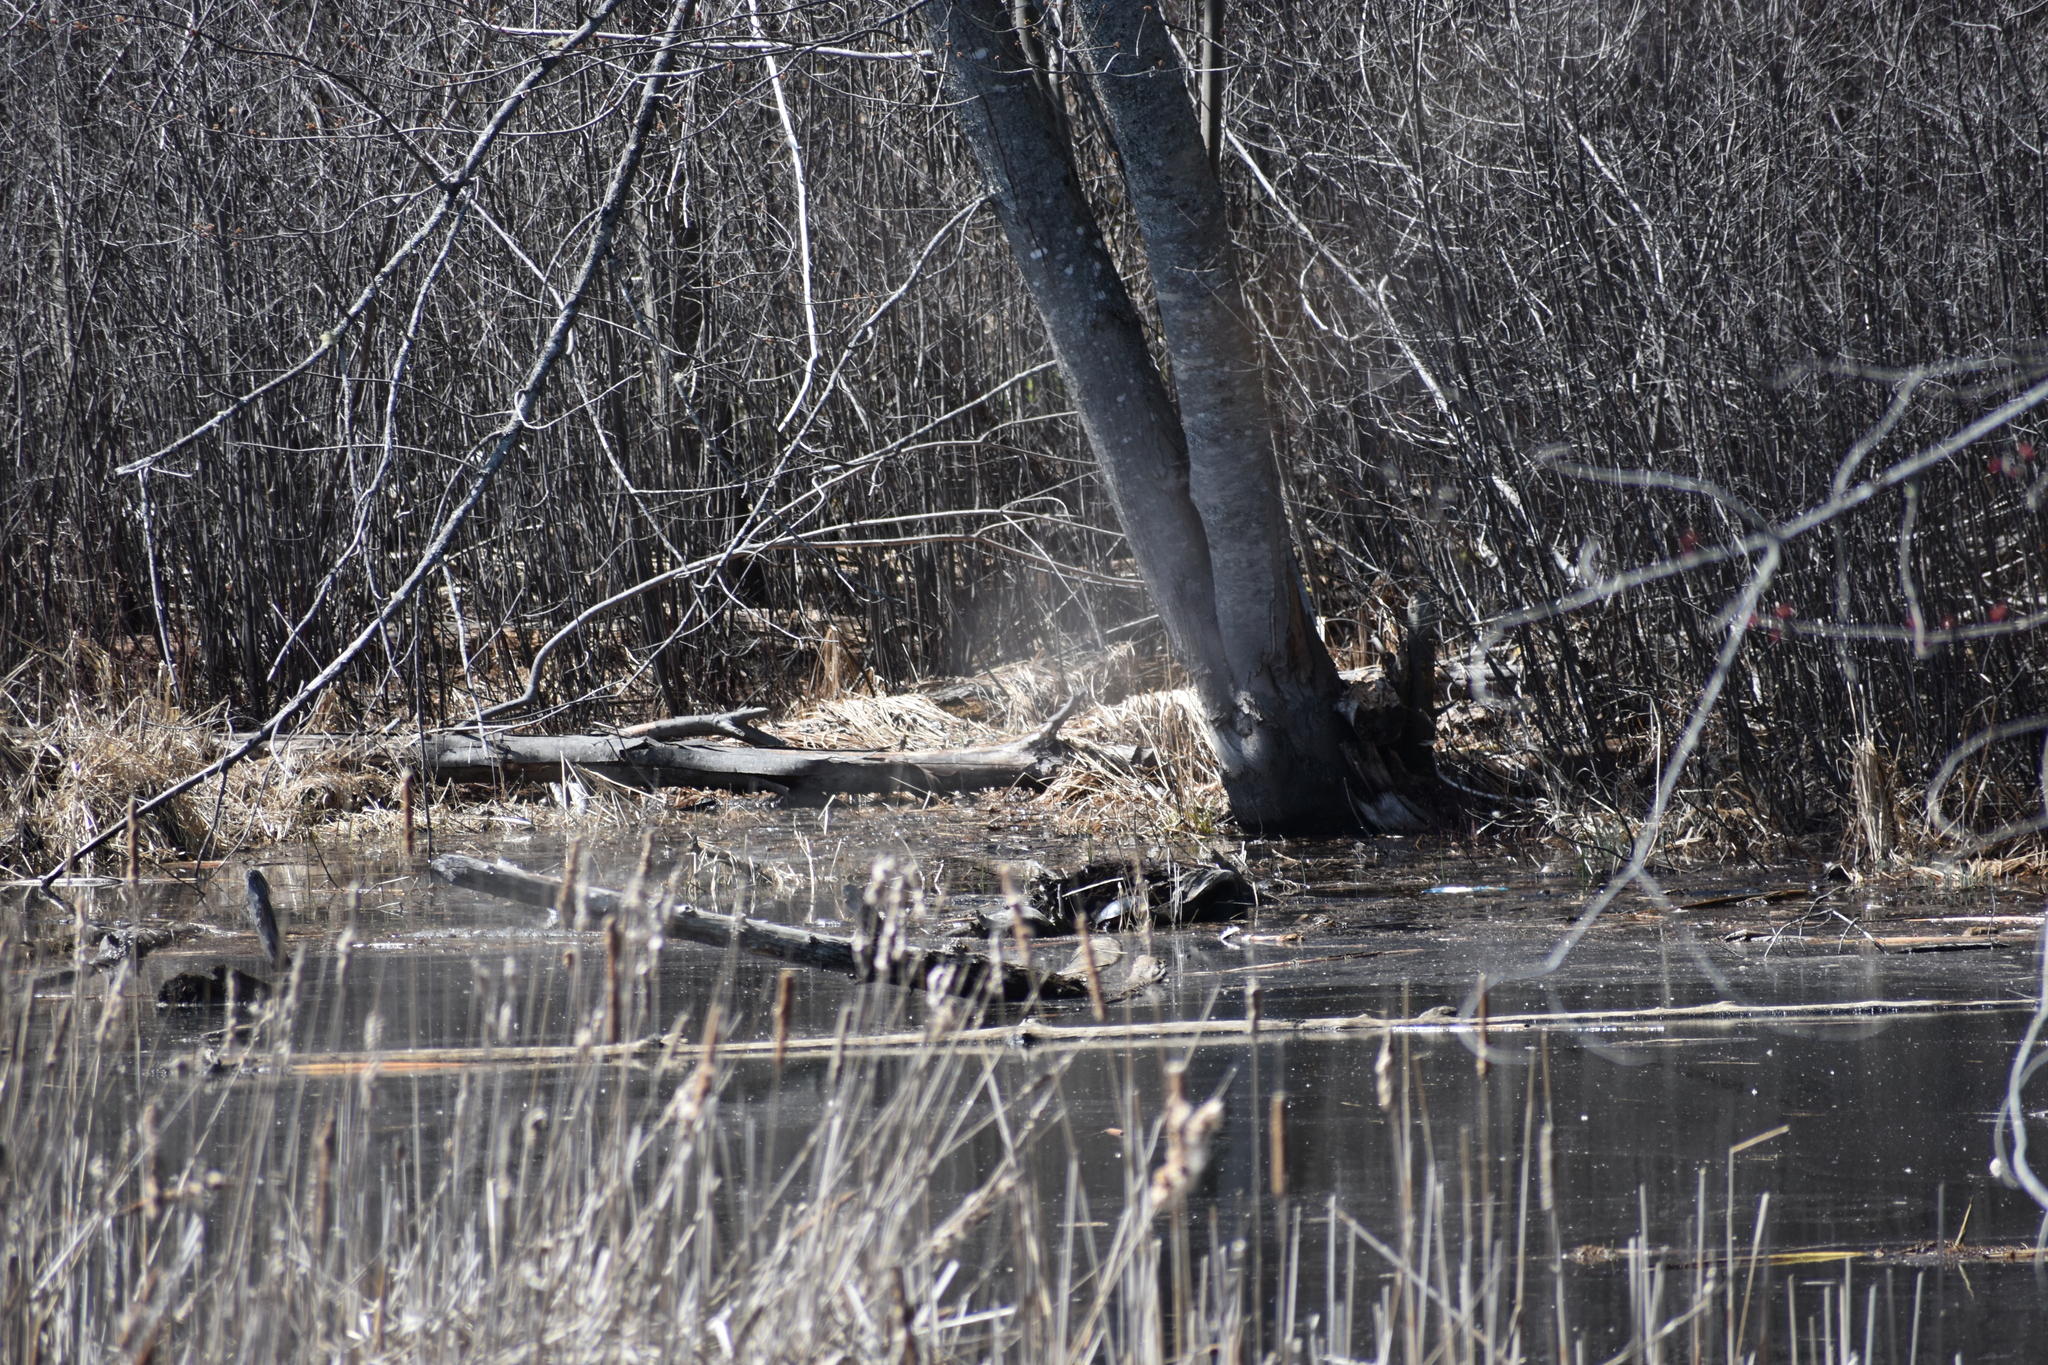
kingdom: Animalia
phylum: Chordata
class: Testudines
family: Emydidae
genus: Chrysemys
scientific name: Chrysemys picta
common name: Painted turtle
